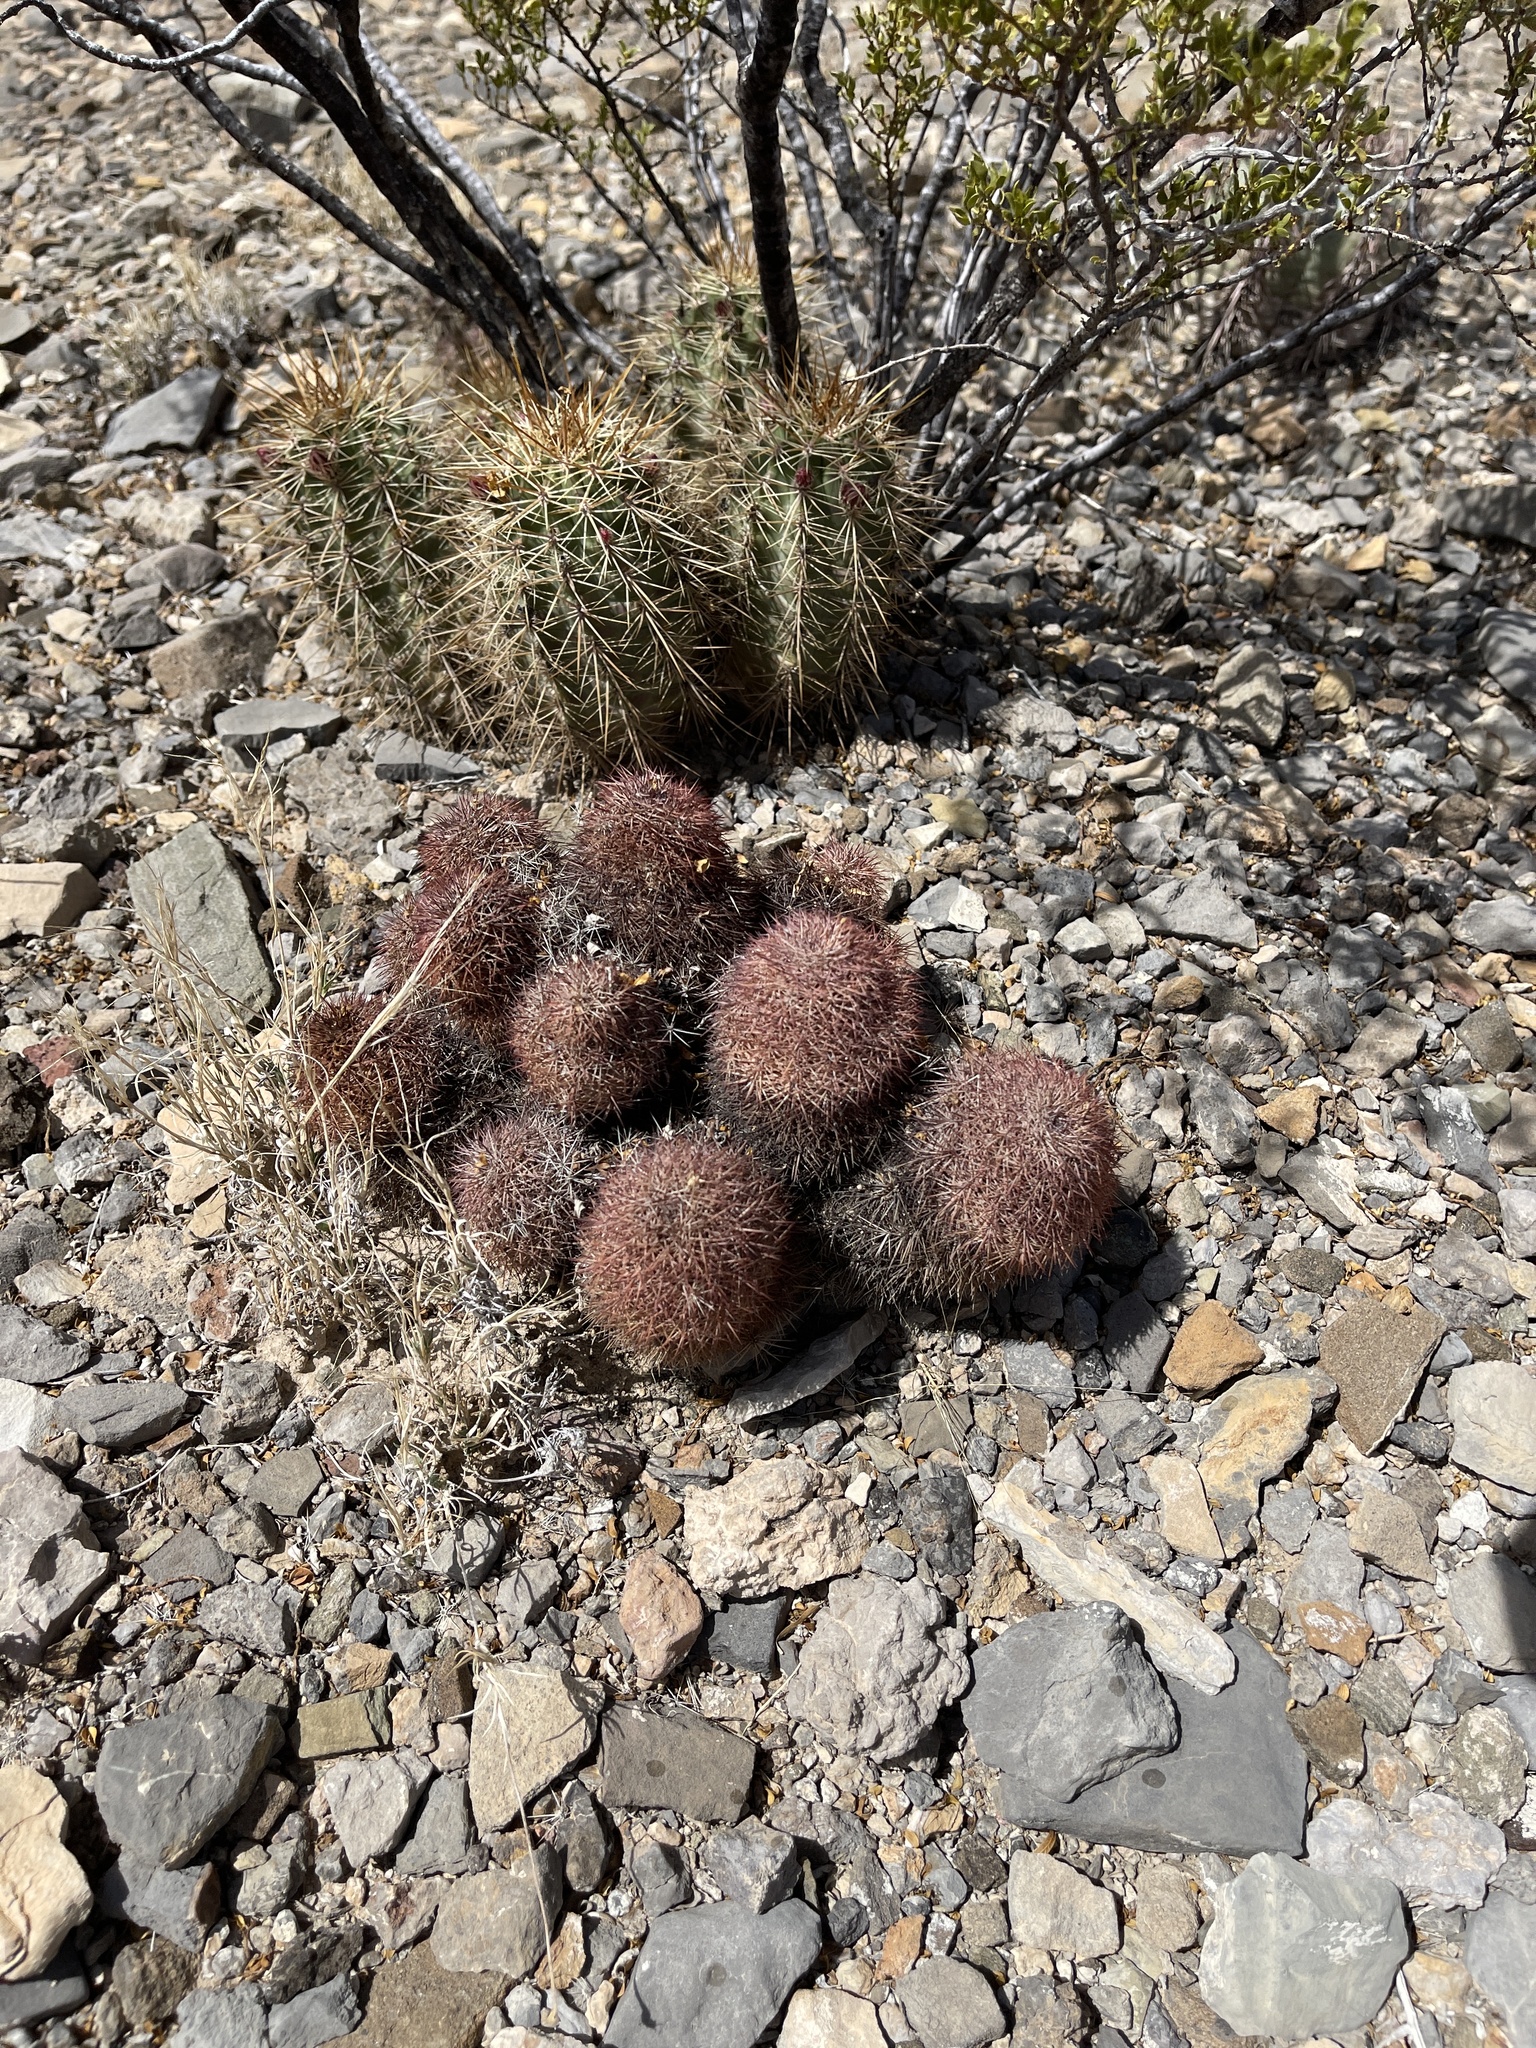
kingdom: Plantae
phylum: Tracheophyta
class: Magnoliopsida
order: Caryophyllales
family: Cactaceae
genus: Echinocereus
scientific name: Echinocereus dasyacanthus
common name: Spiny hedgehog cactus
